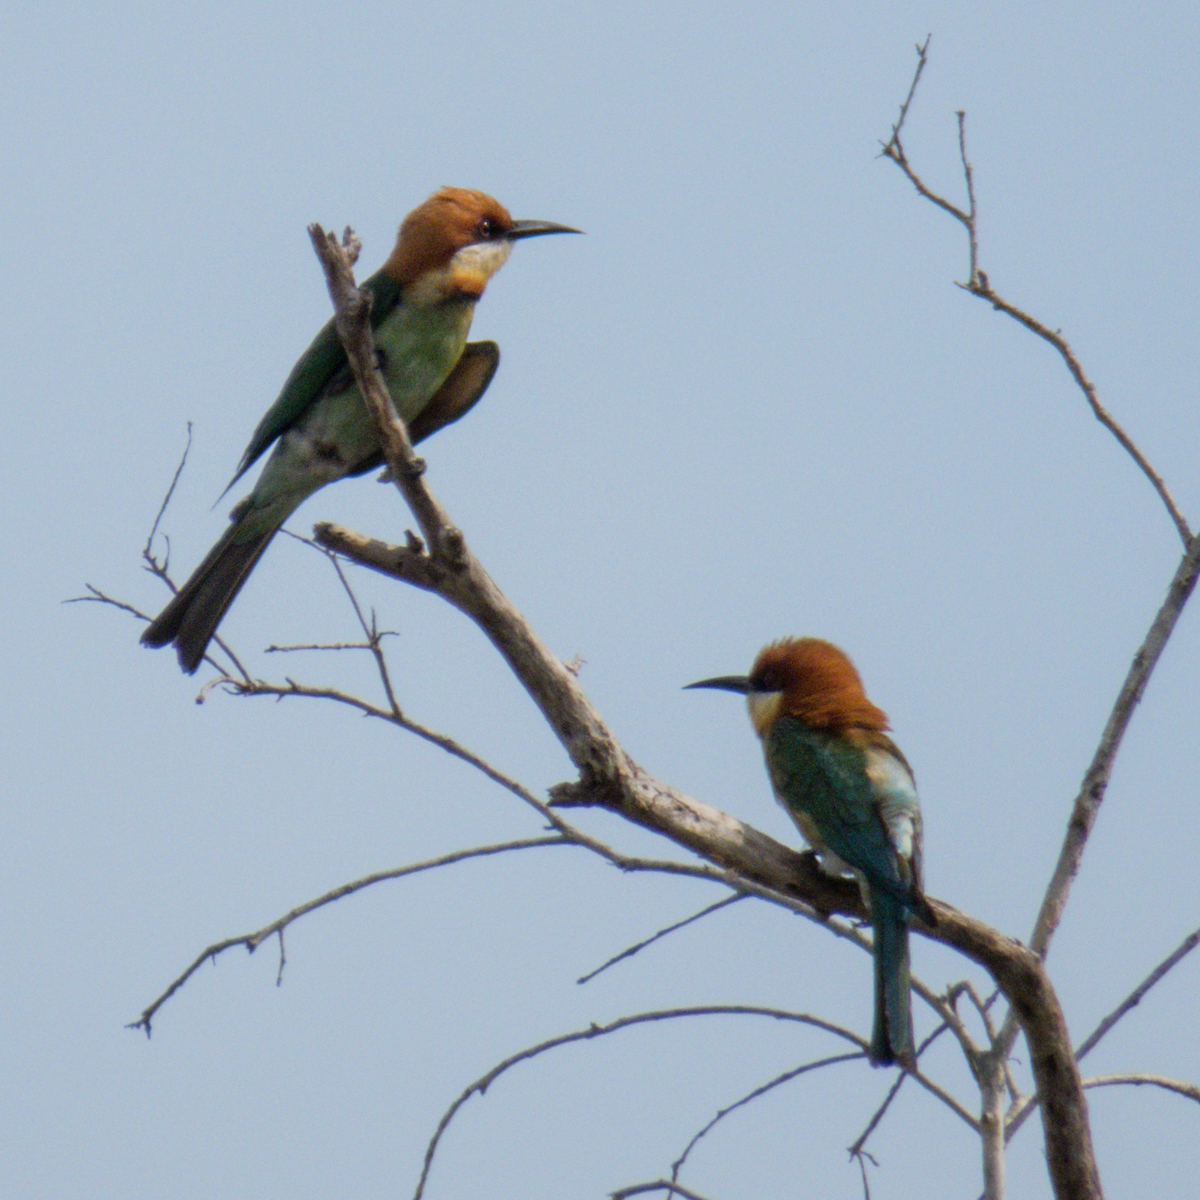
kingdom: Animalia
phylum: Chordata
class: Aves
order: Coraciiformes
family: Meropidae
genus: Merops
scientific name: Merops leschenaulti
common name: Chestnut-headed bee-eater
